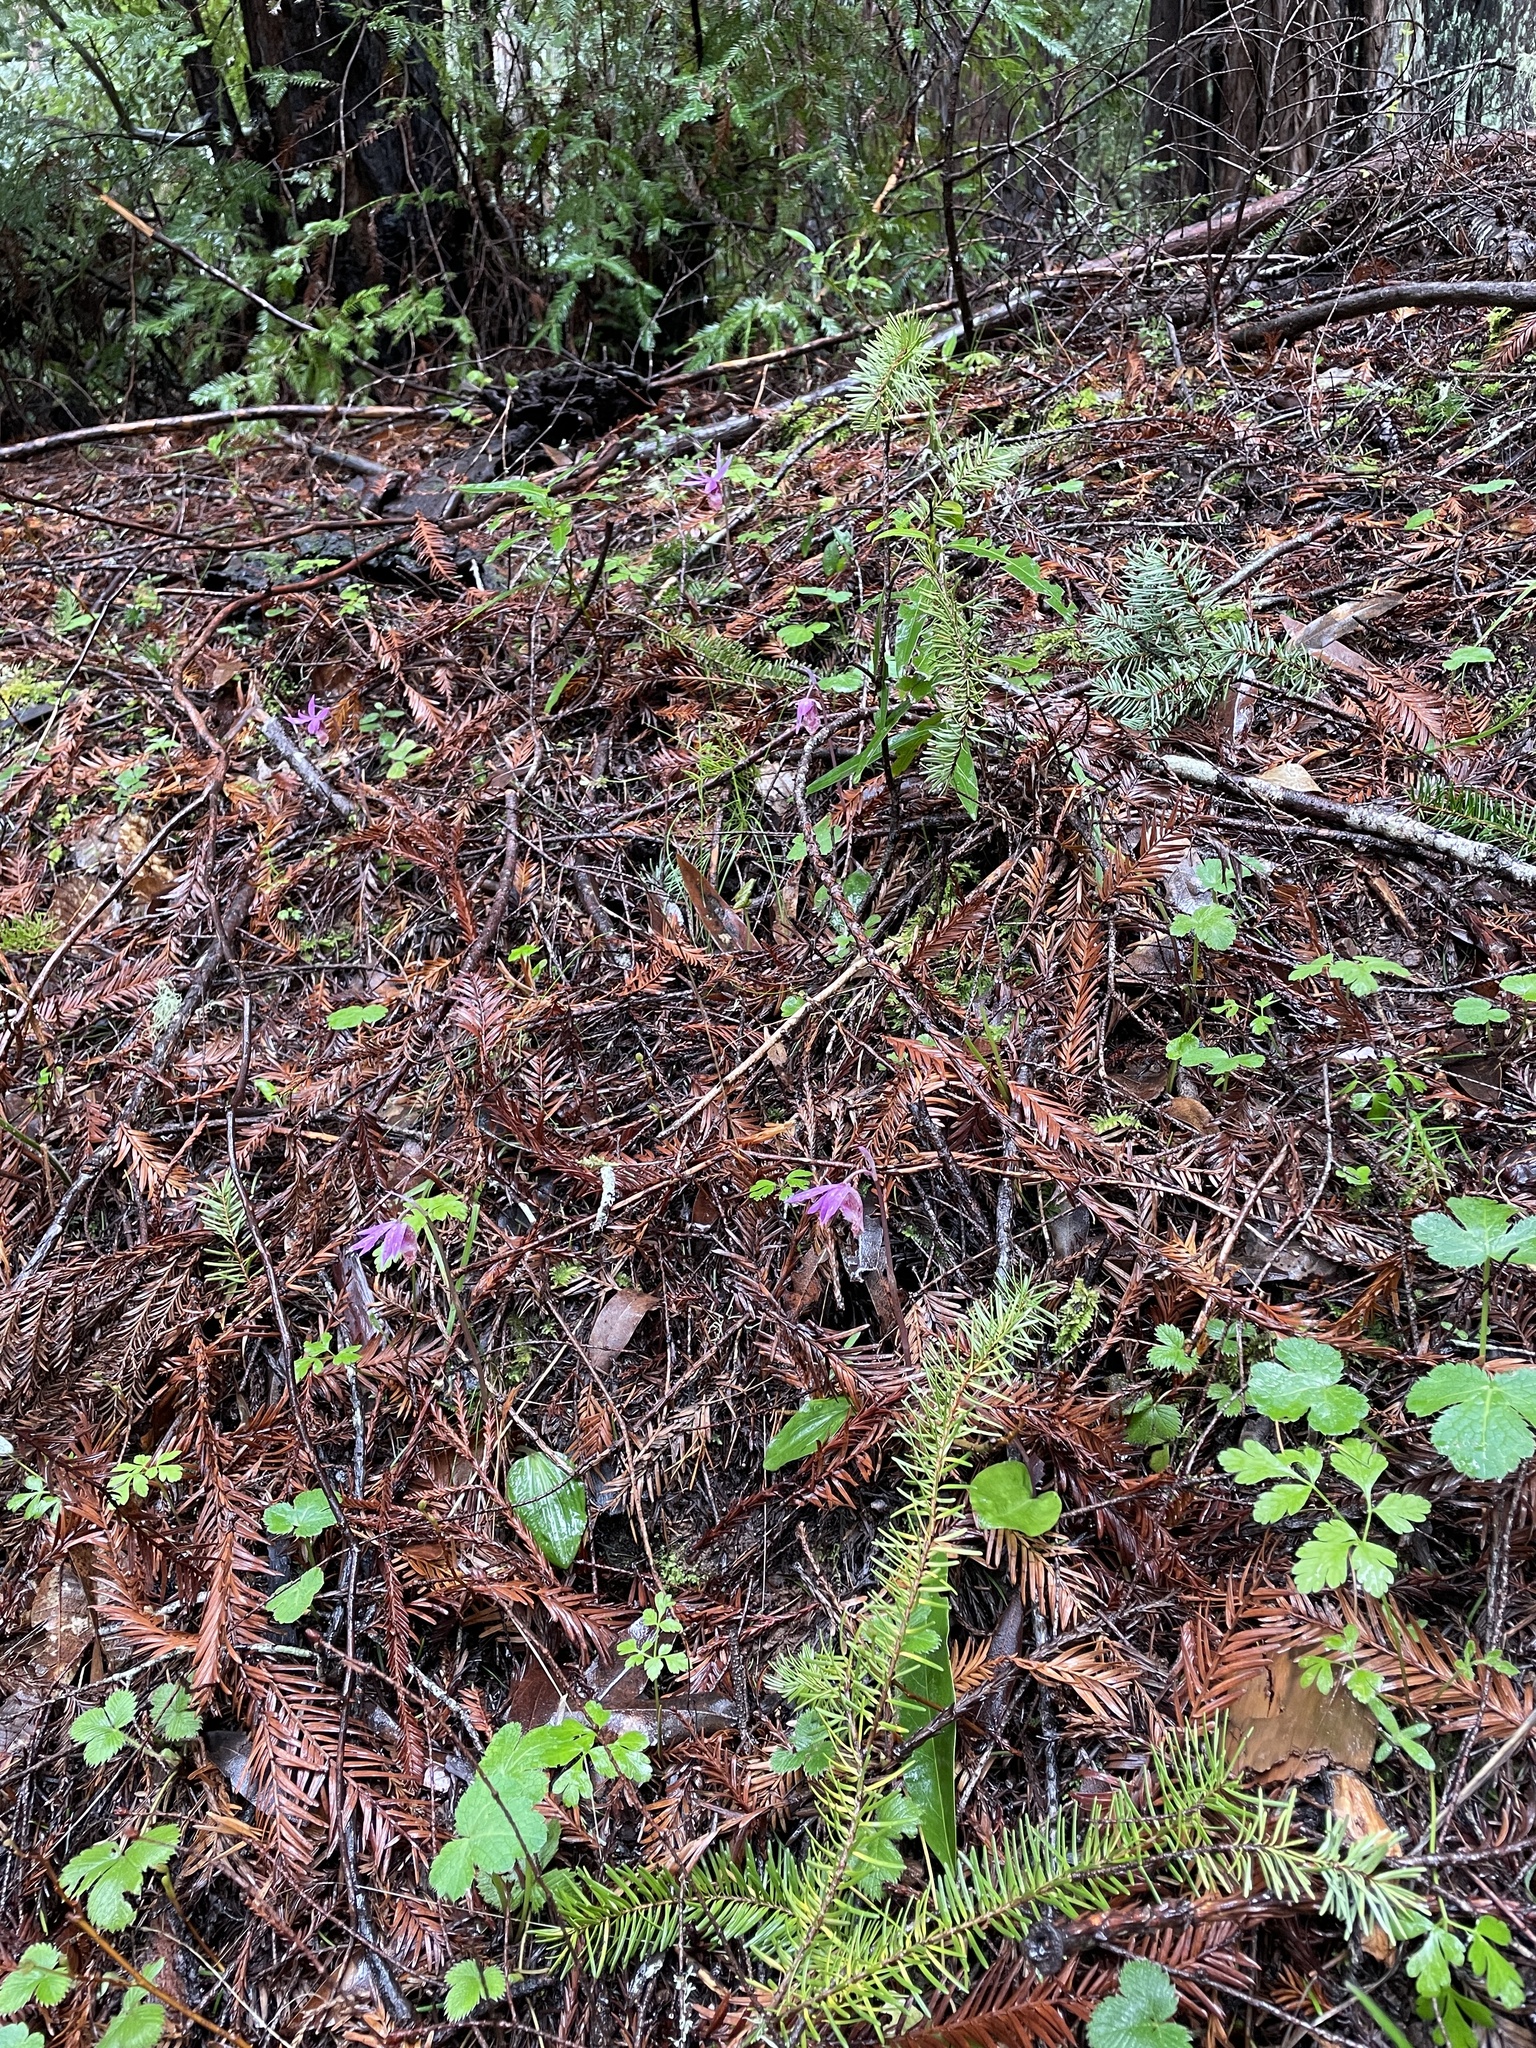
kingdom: Plantae
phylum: Tracheophyta
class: Liliopsida
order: Asparagales
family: Orchidaceae
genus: Calypso
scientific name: Calypso bulbosa
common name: Calypso
